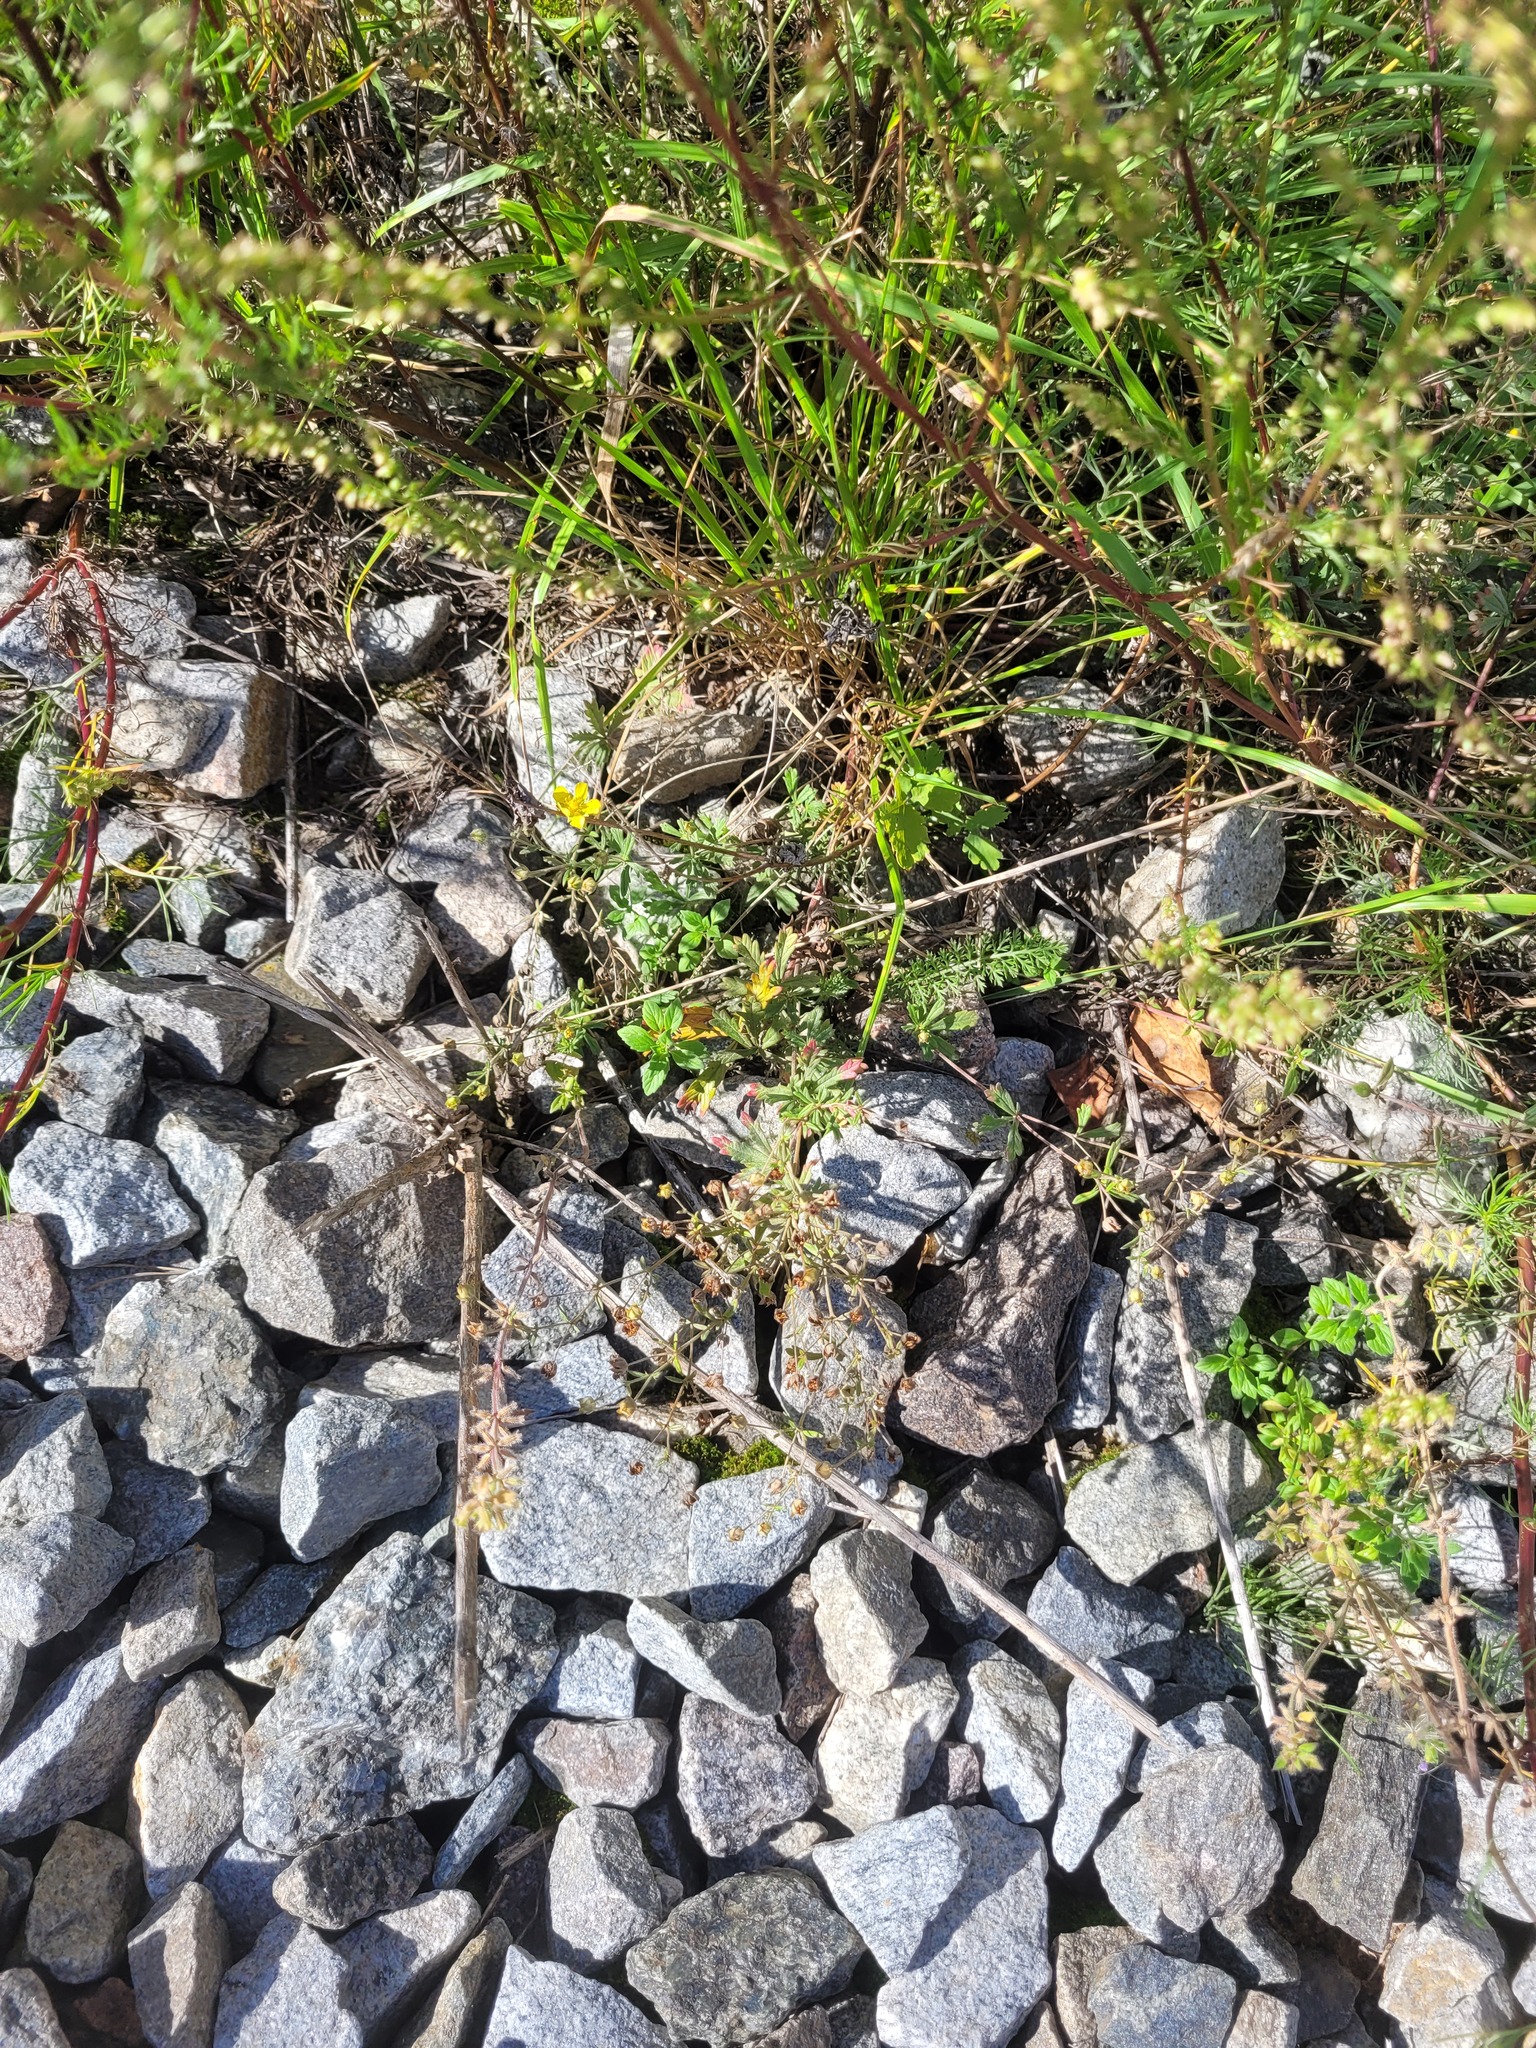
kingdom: Plantae
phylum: Tracheophyta
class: Magnoliopsida
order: Rosales
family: Rosaceae
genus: Potentilla
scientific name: Potentilla argentea
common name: Hoary cinquefoil
